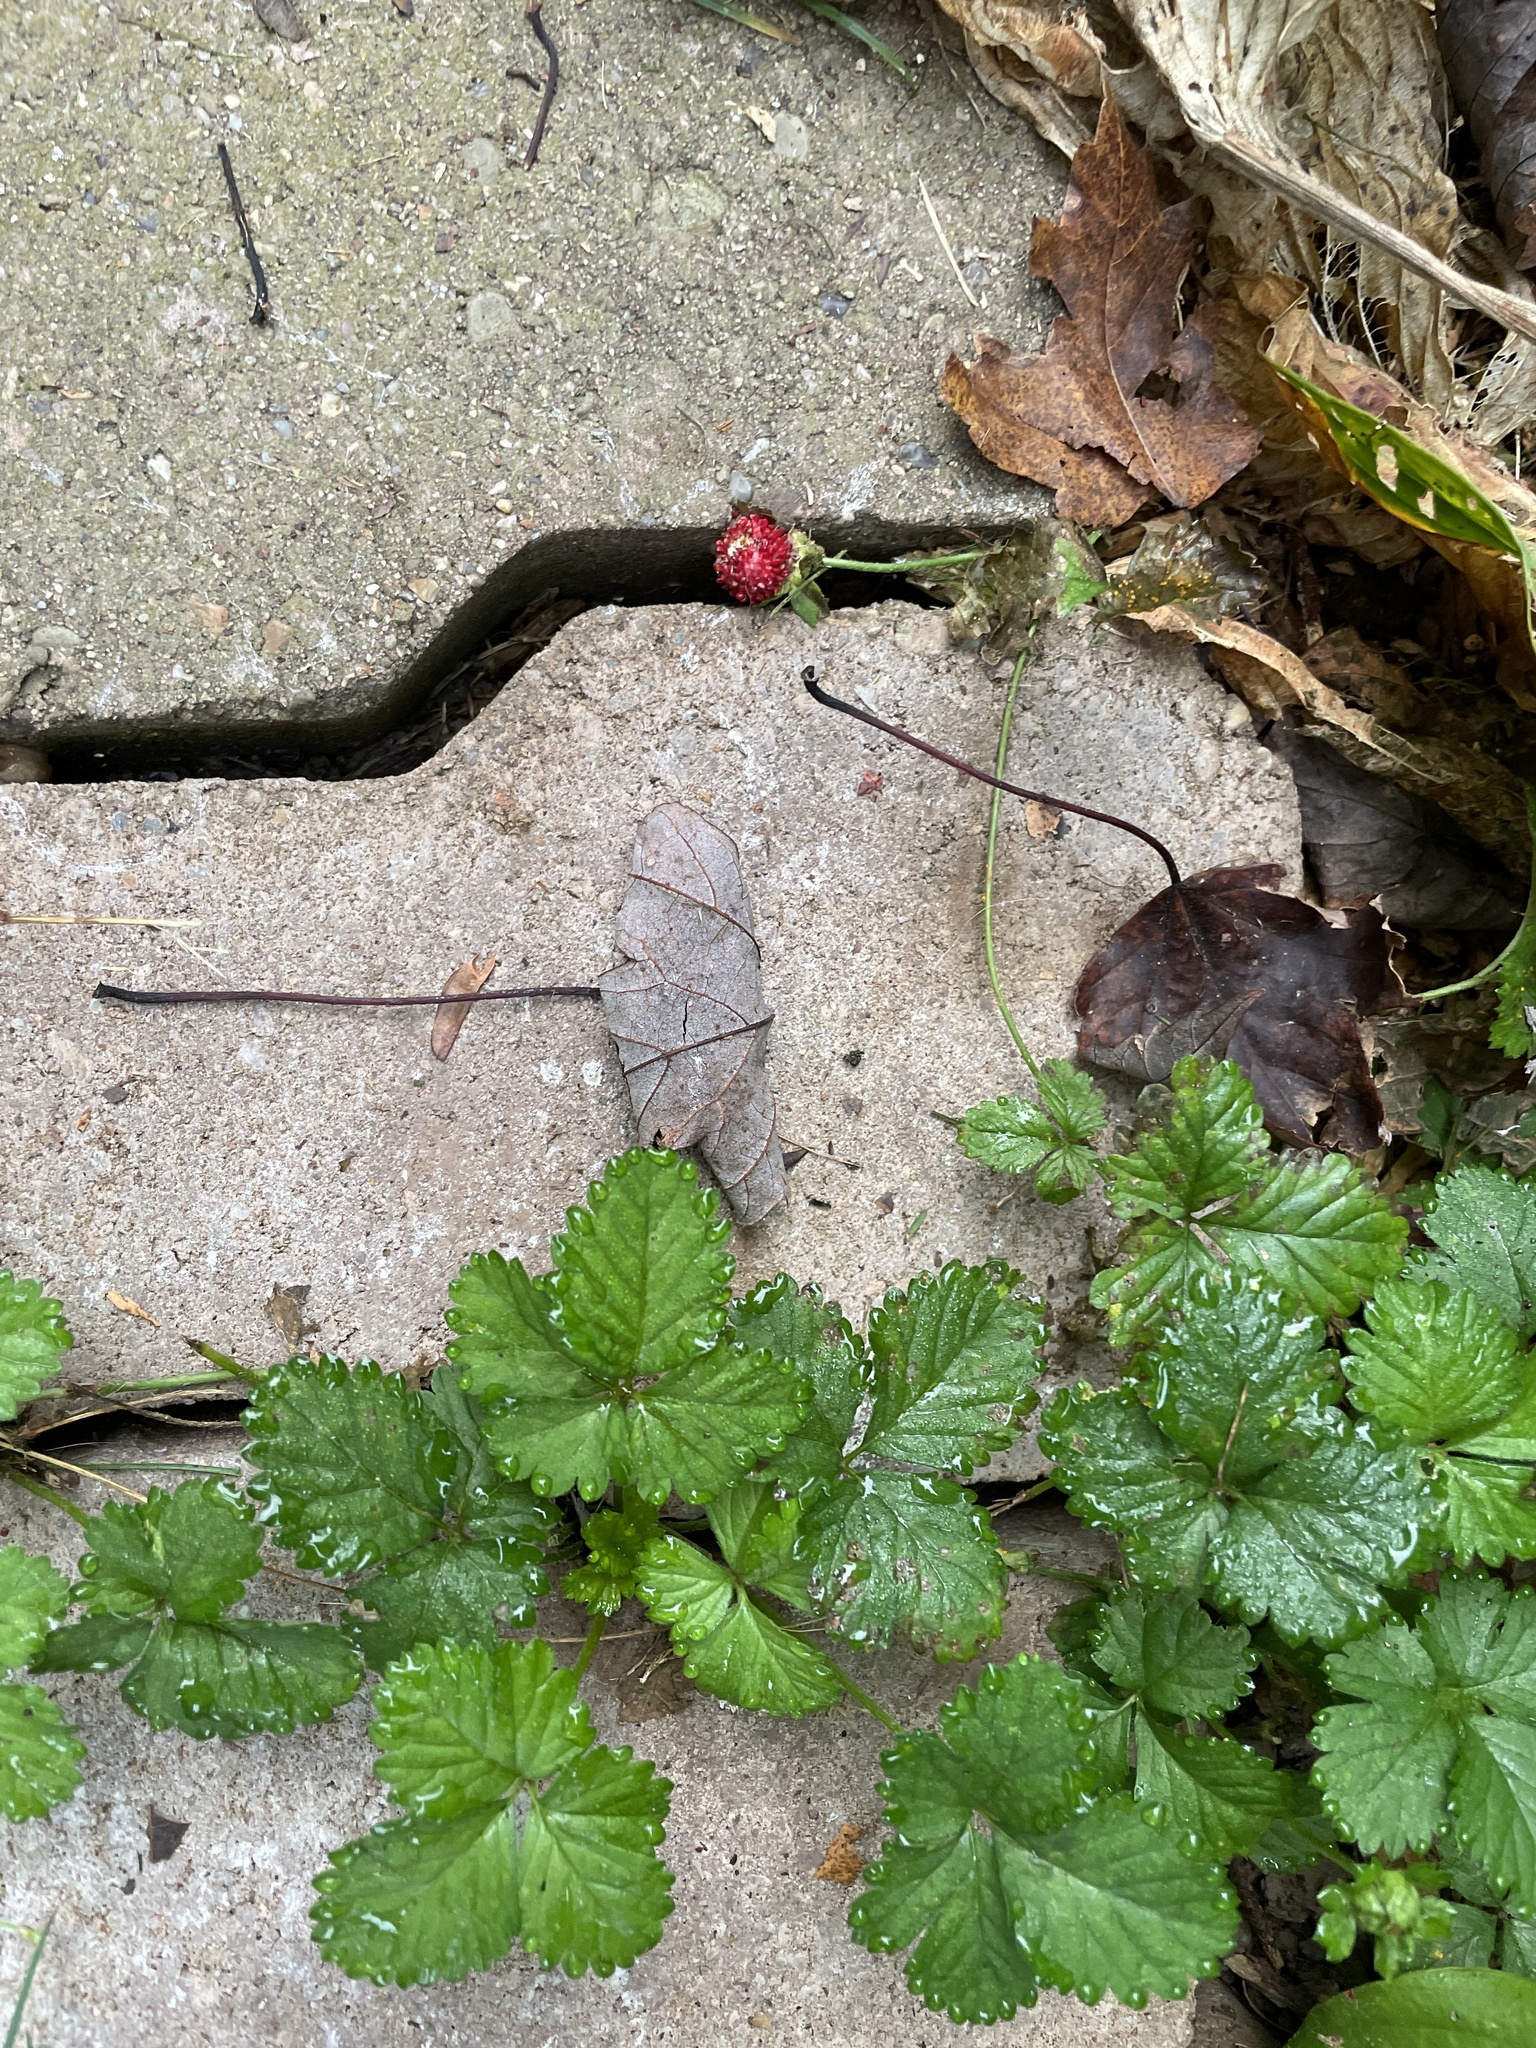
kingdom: Plantae
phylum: Tracheophyta
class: Magnoliopsida
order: Rosales
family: Rosaceae
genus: Potentilla
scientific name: Potentilla indica
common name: Yellow-flowered strawberry
